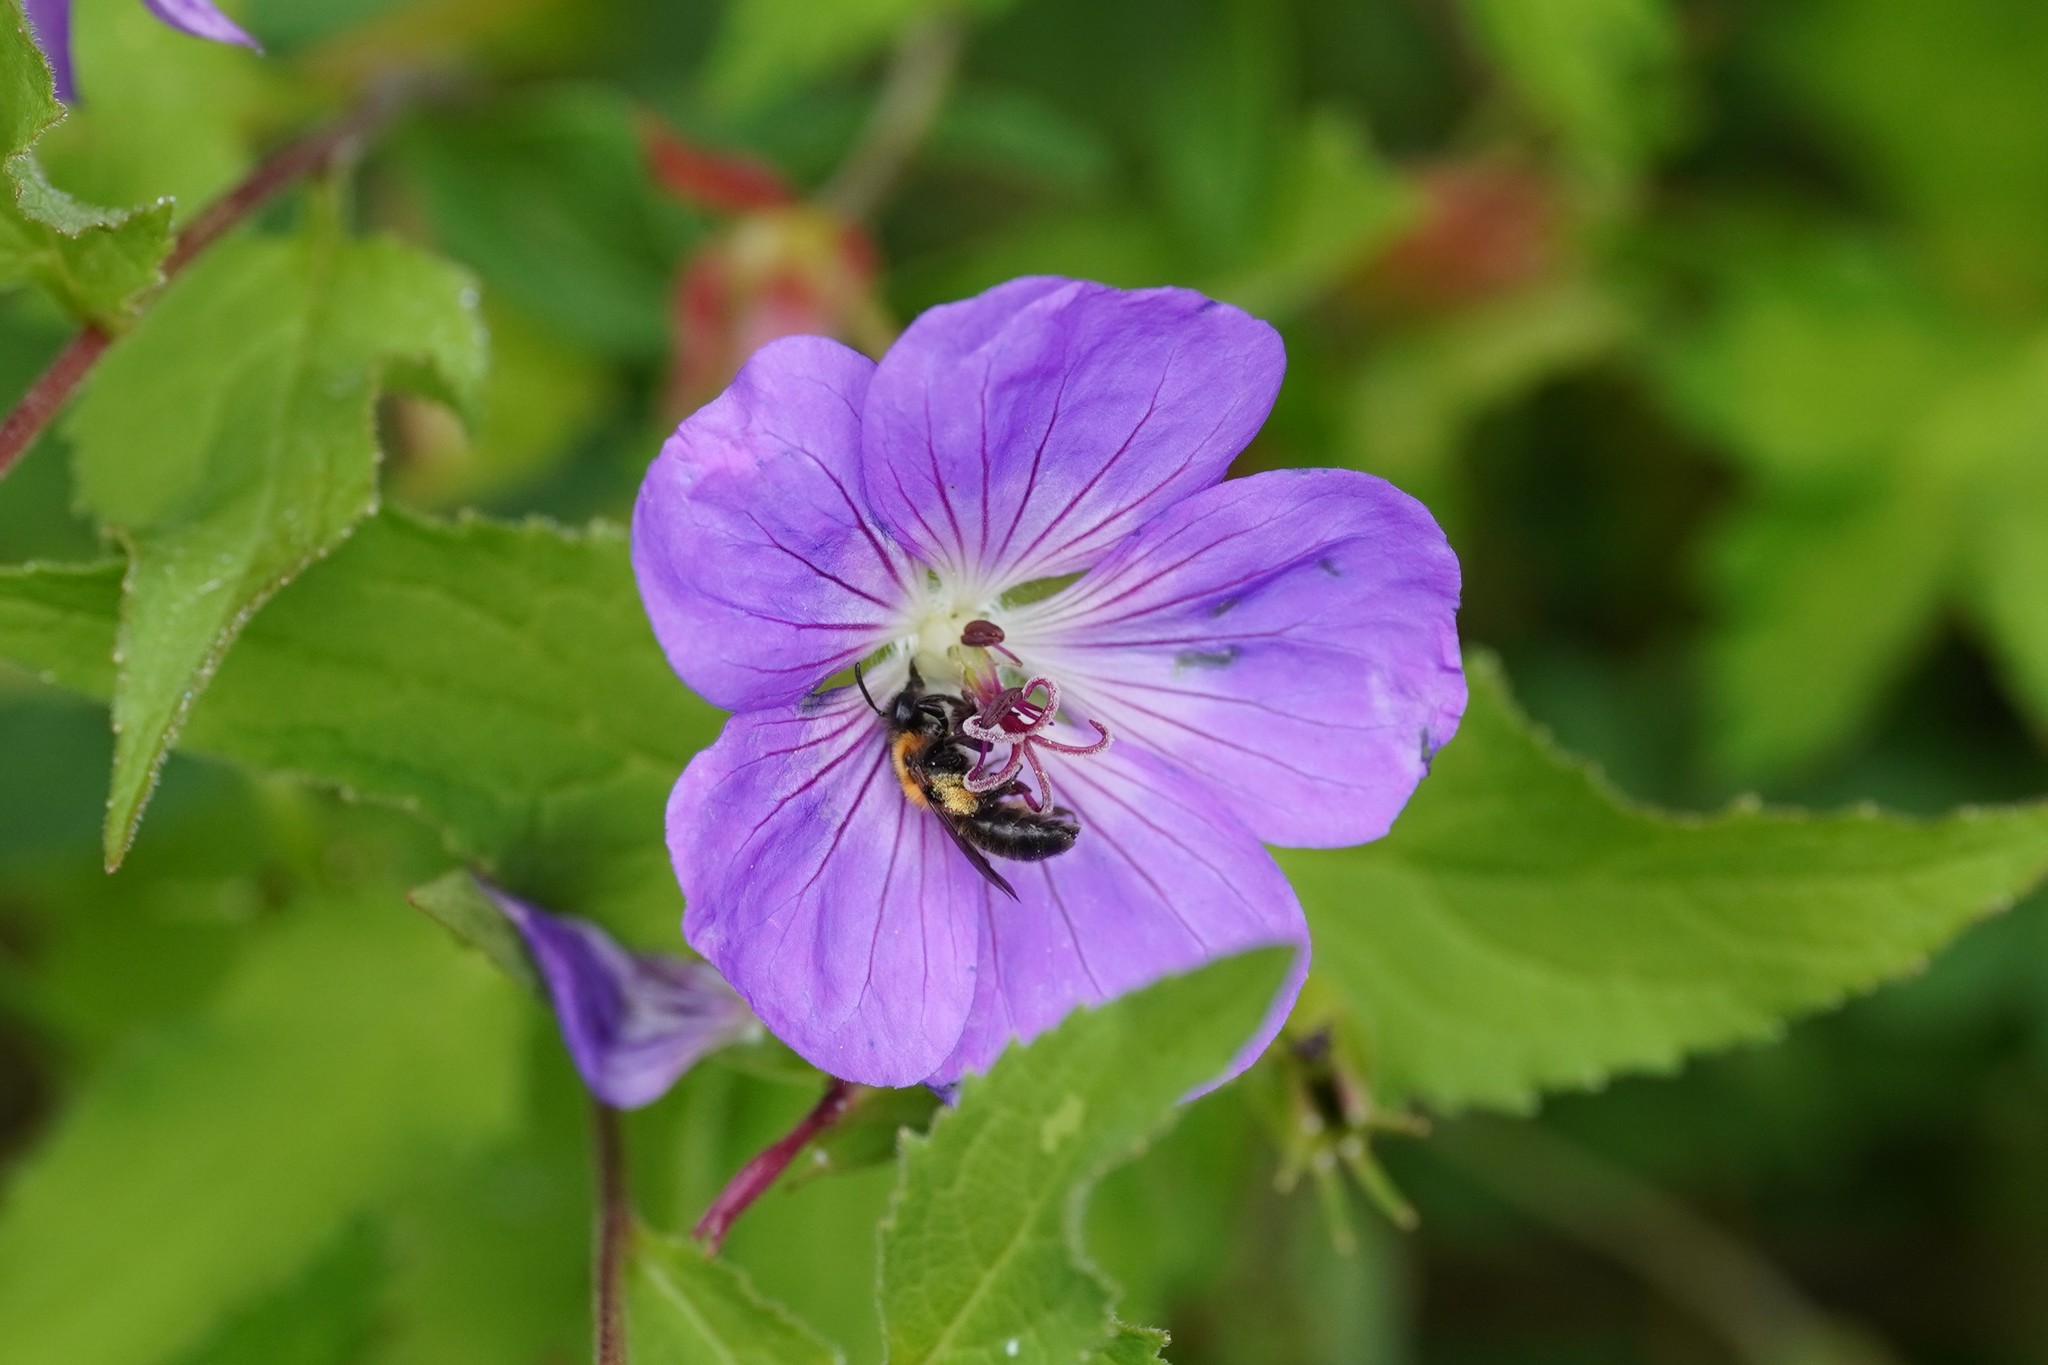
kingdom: Animalia
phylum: Arthropoda
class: Insecta
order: Hymenoptera
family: Andrenidae
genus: Andrena
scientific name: Andrena bicolor
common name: Gwynne's mining bee
